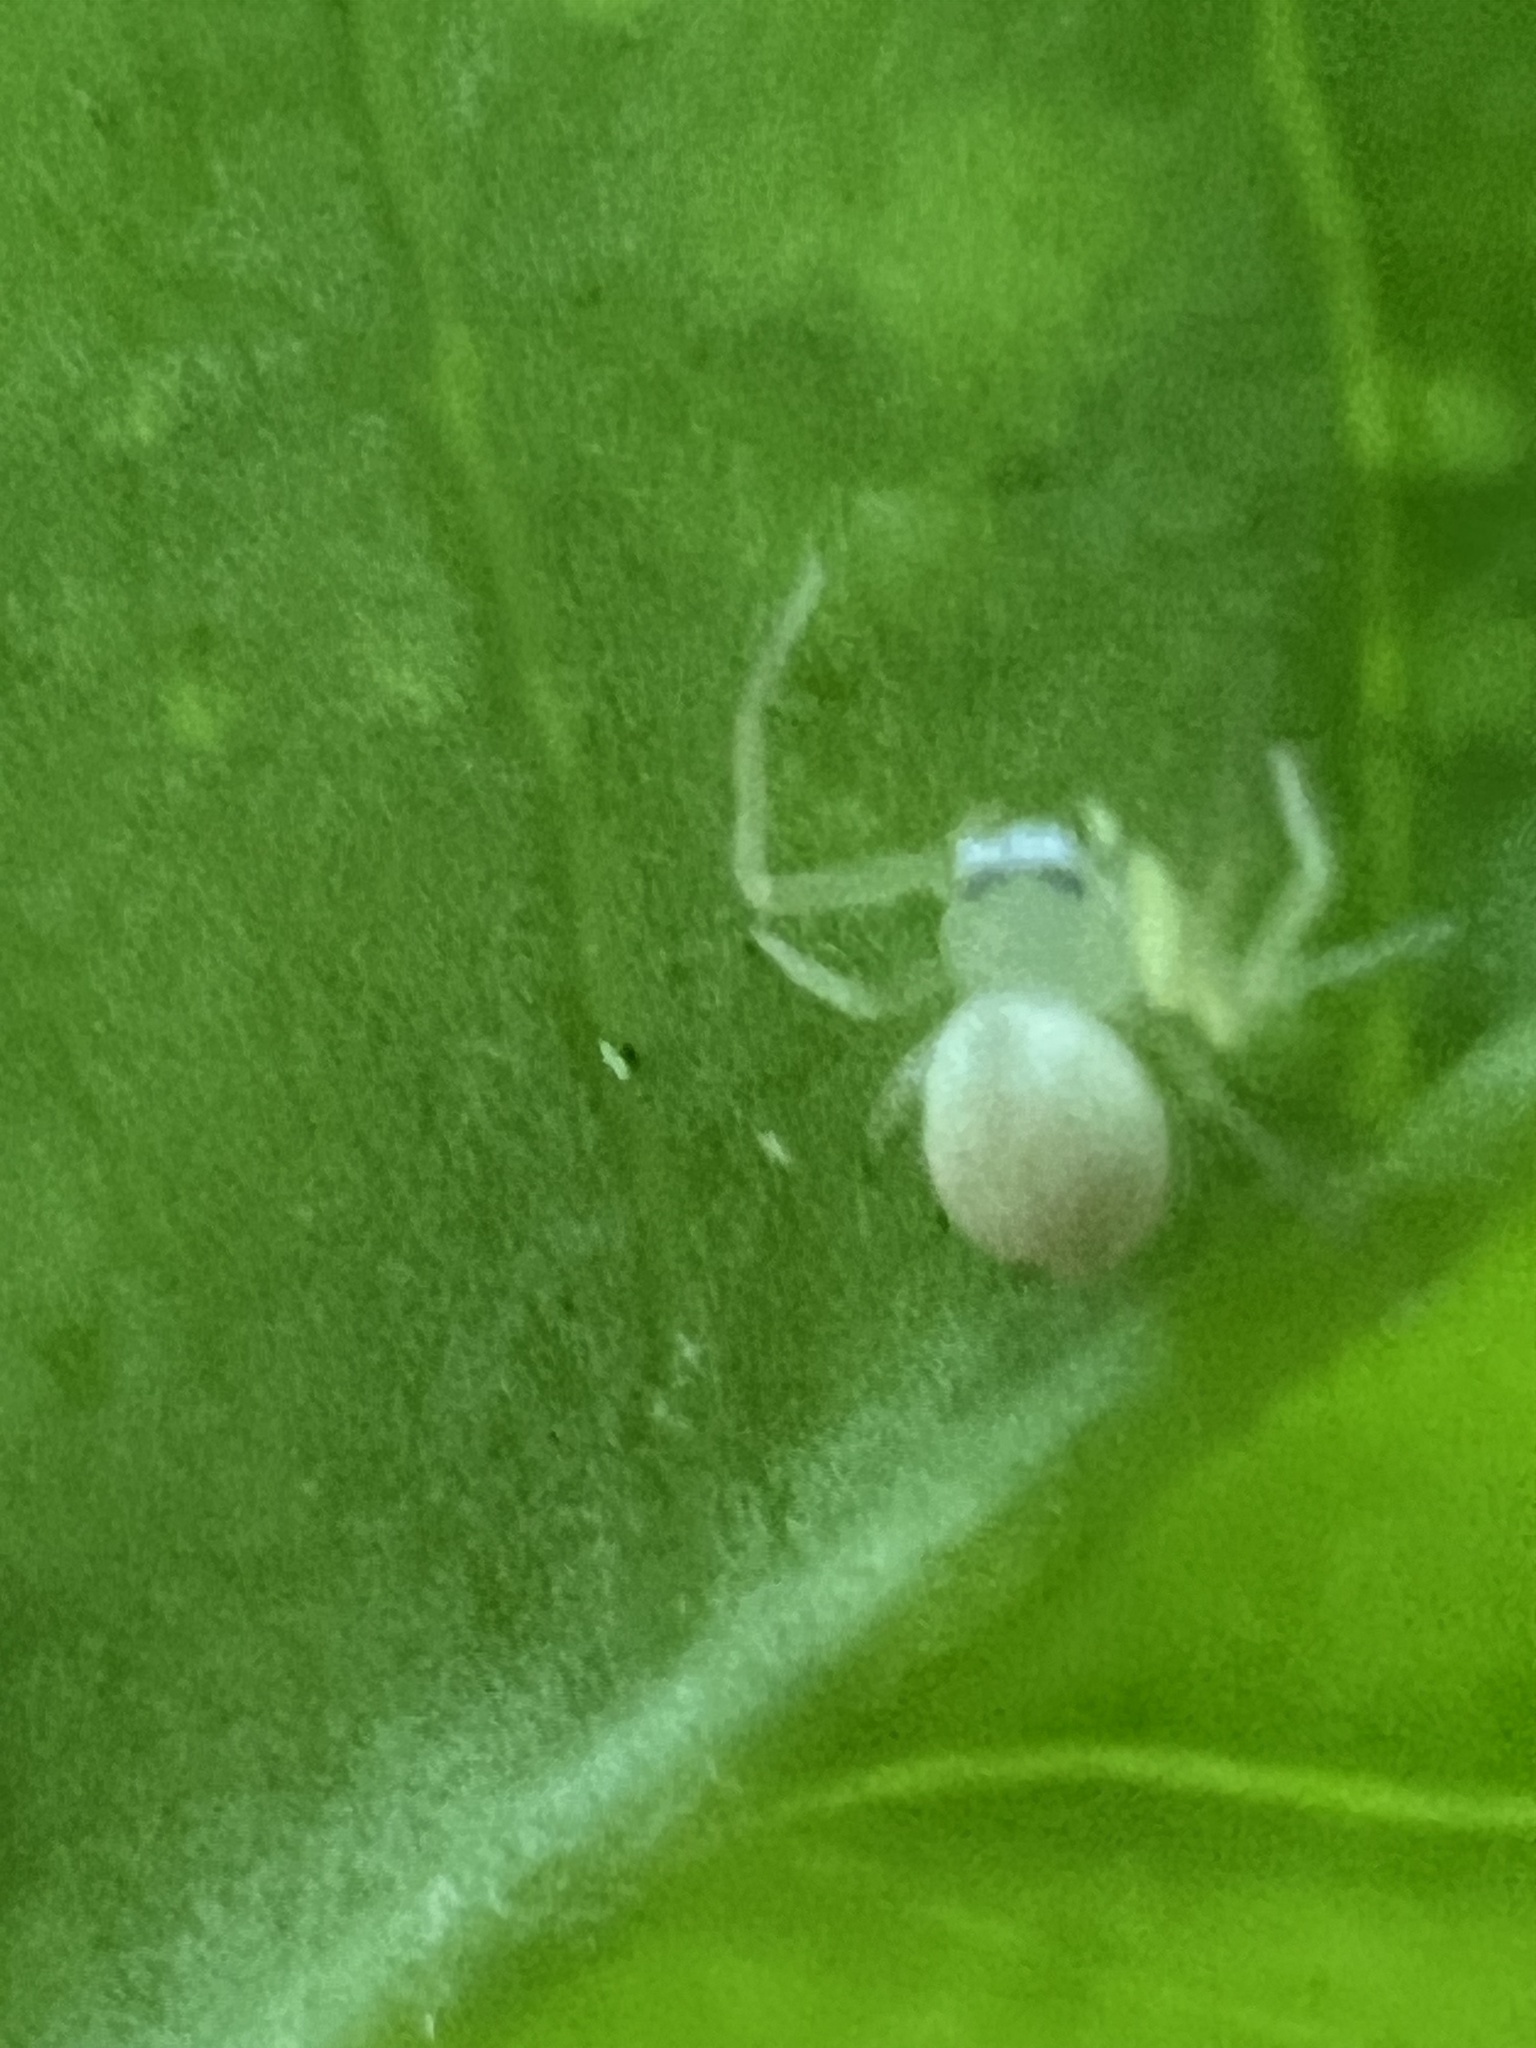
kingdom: Animalia
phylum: Arthropoda
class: Arachnida
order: Araneae
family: Thomisidae
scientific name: Thomisidae
